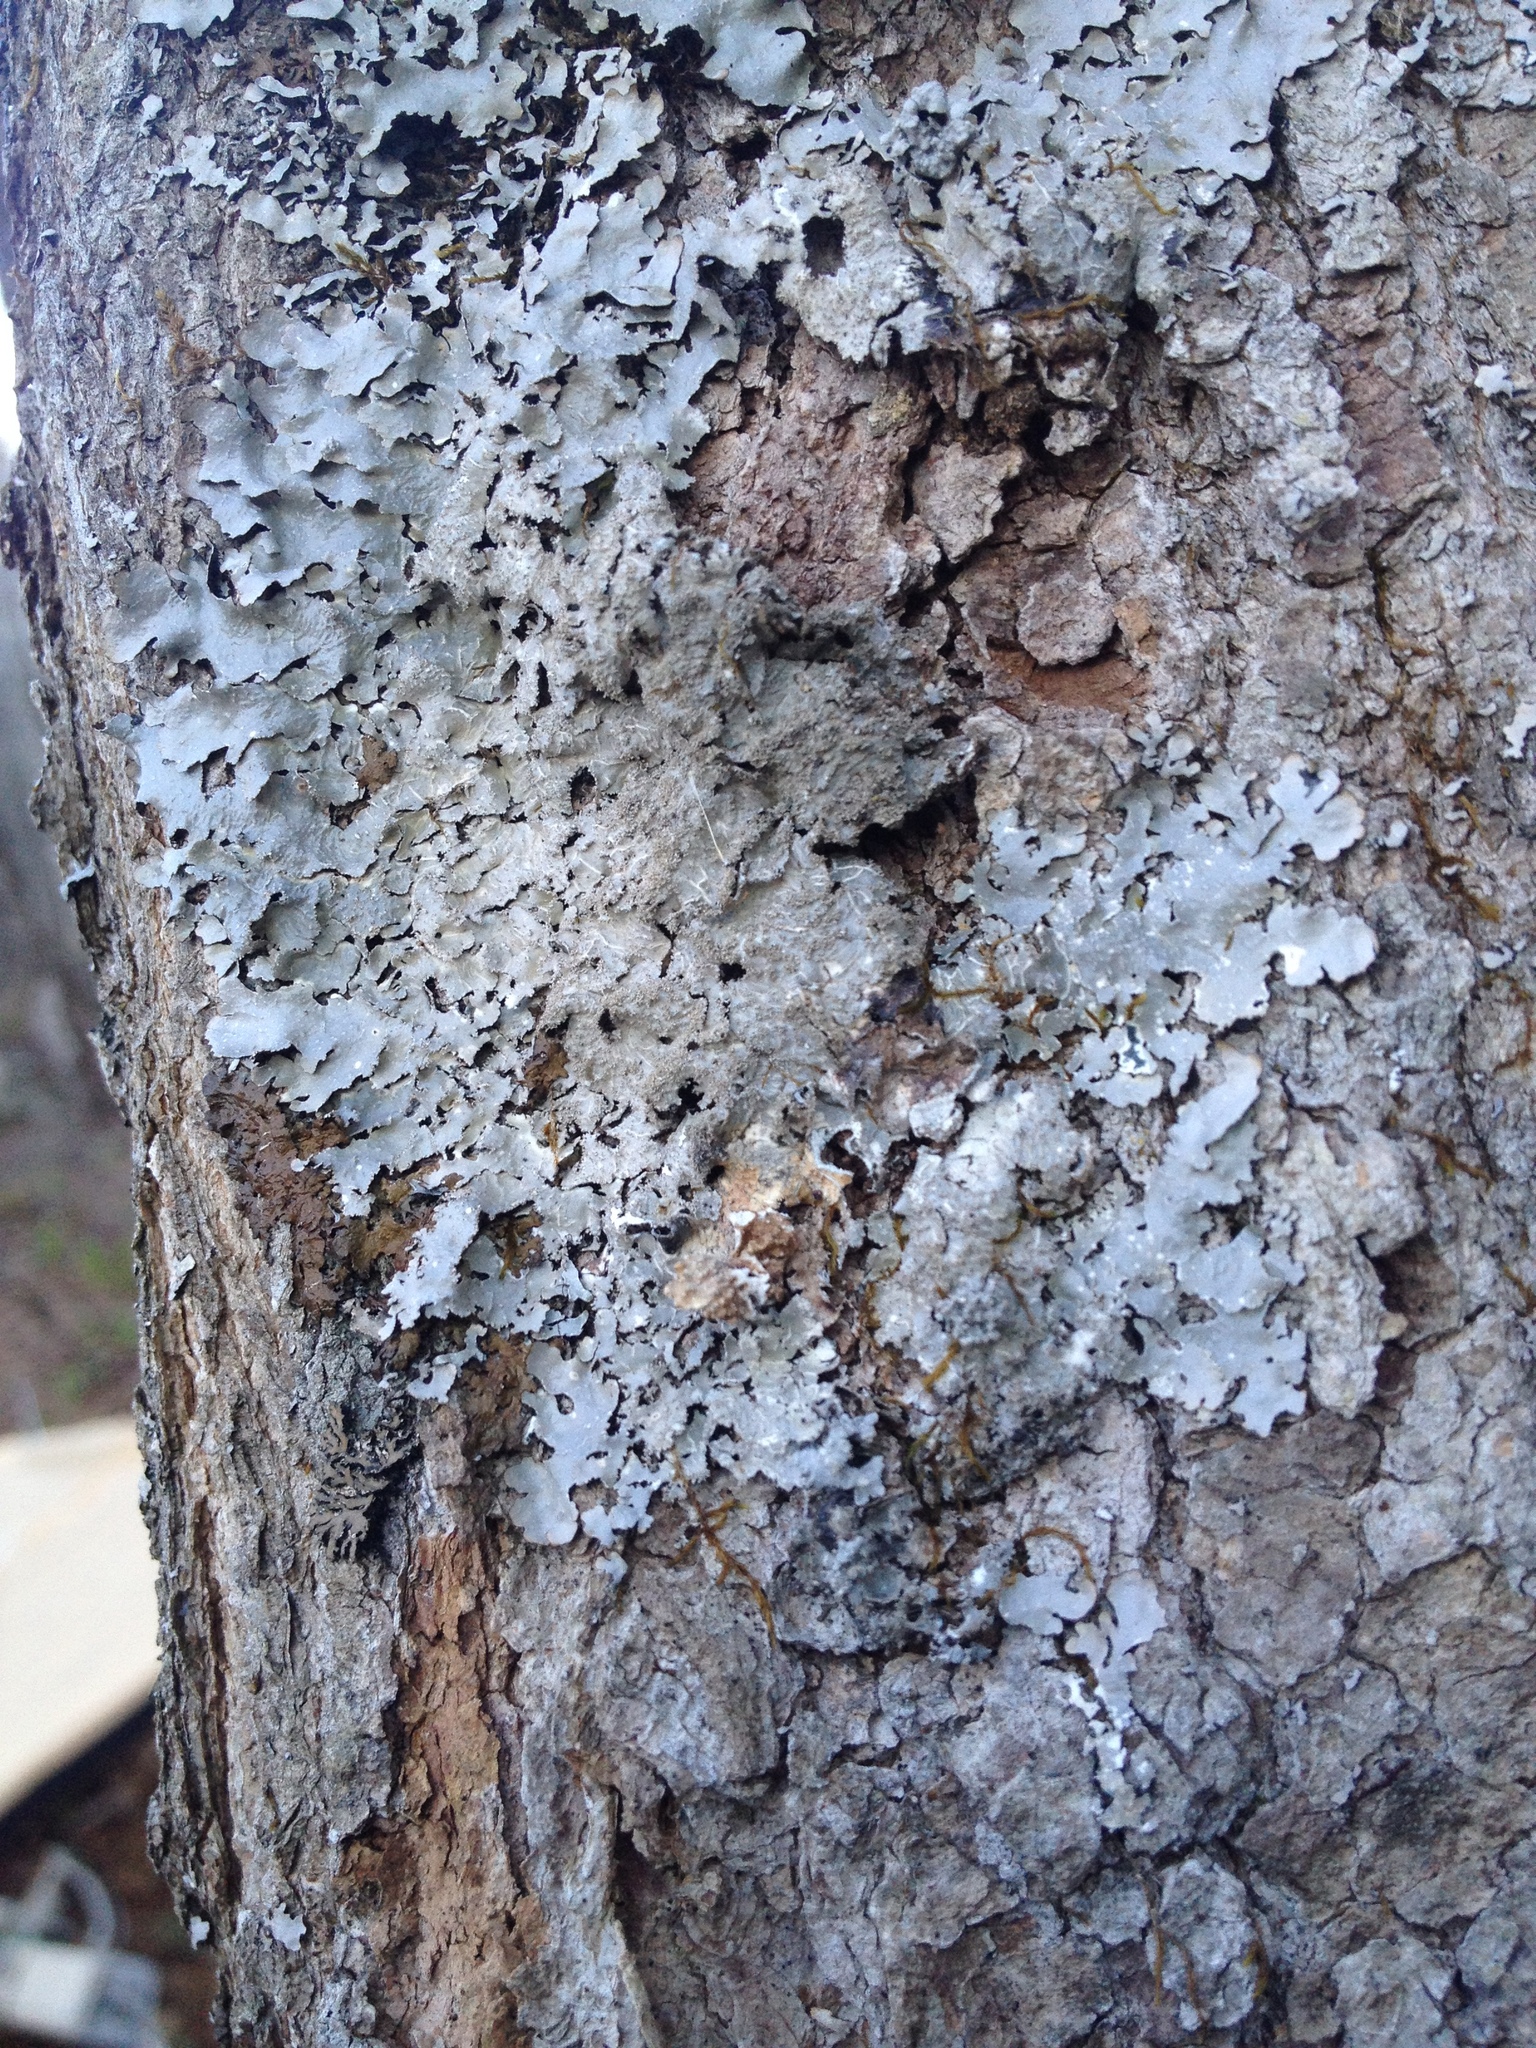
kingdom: Fungi
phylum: Ascomycota
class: Lecanoromycetes
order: Lecanorales
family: Parmeliaceae
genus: Punctelia
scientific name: Punctelia rudecta
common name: Rough speckled shield lichen
